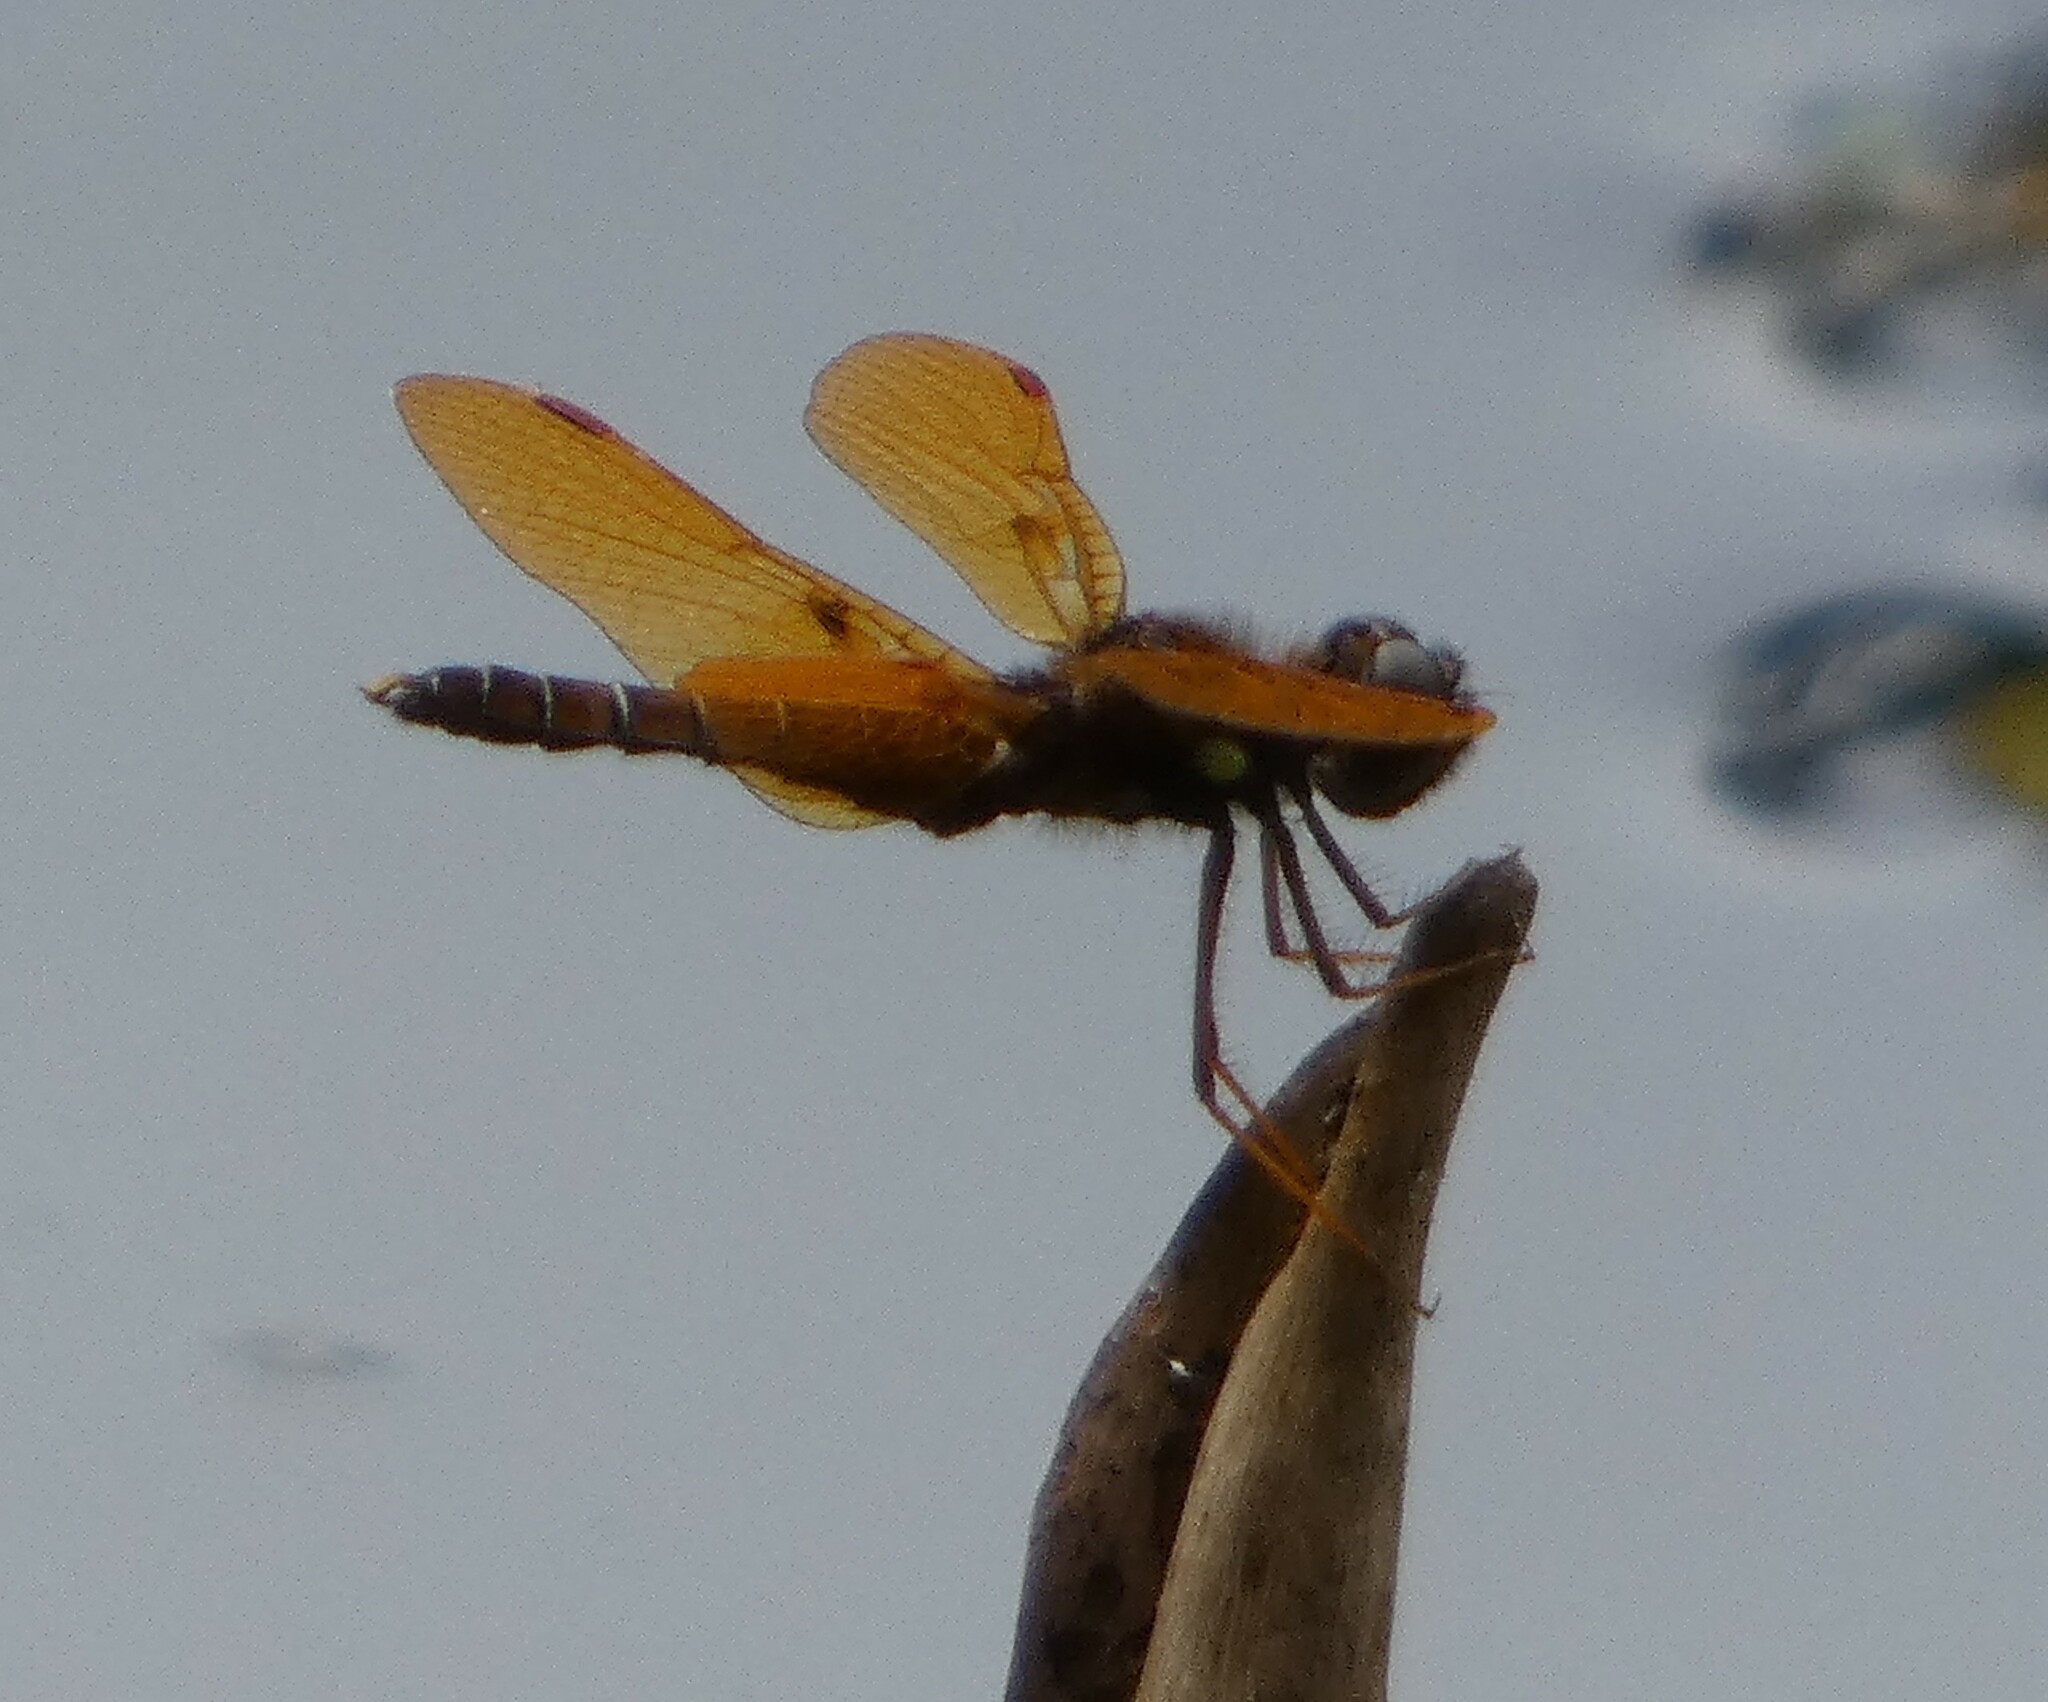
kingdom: Animalia
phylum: Arthropoda
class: Insecta
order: Odonata
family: Libellulidae
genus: Perithemis
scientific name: Perithemis tenera
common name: Eastern amberwing
